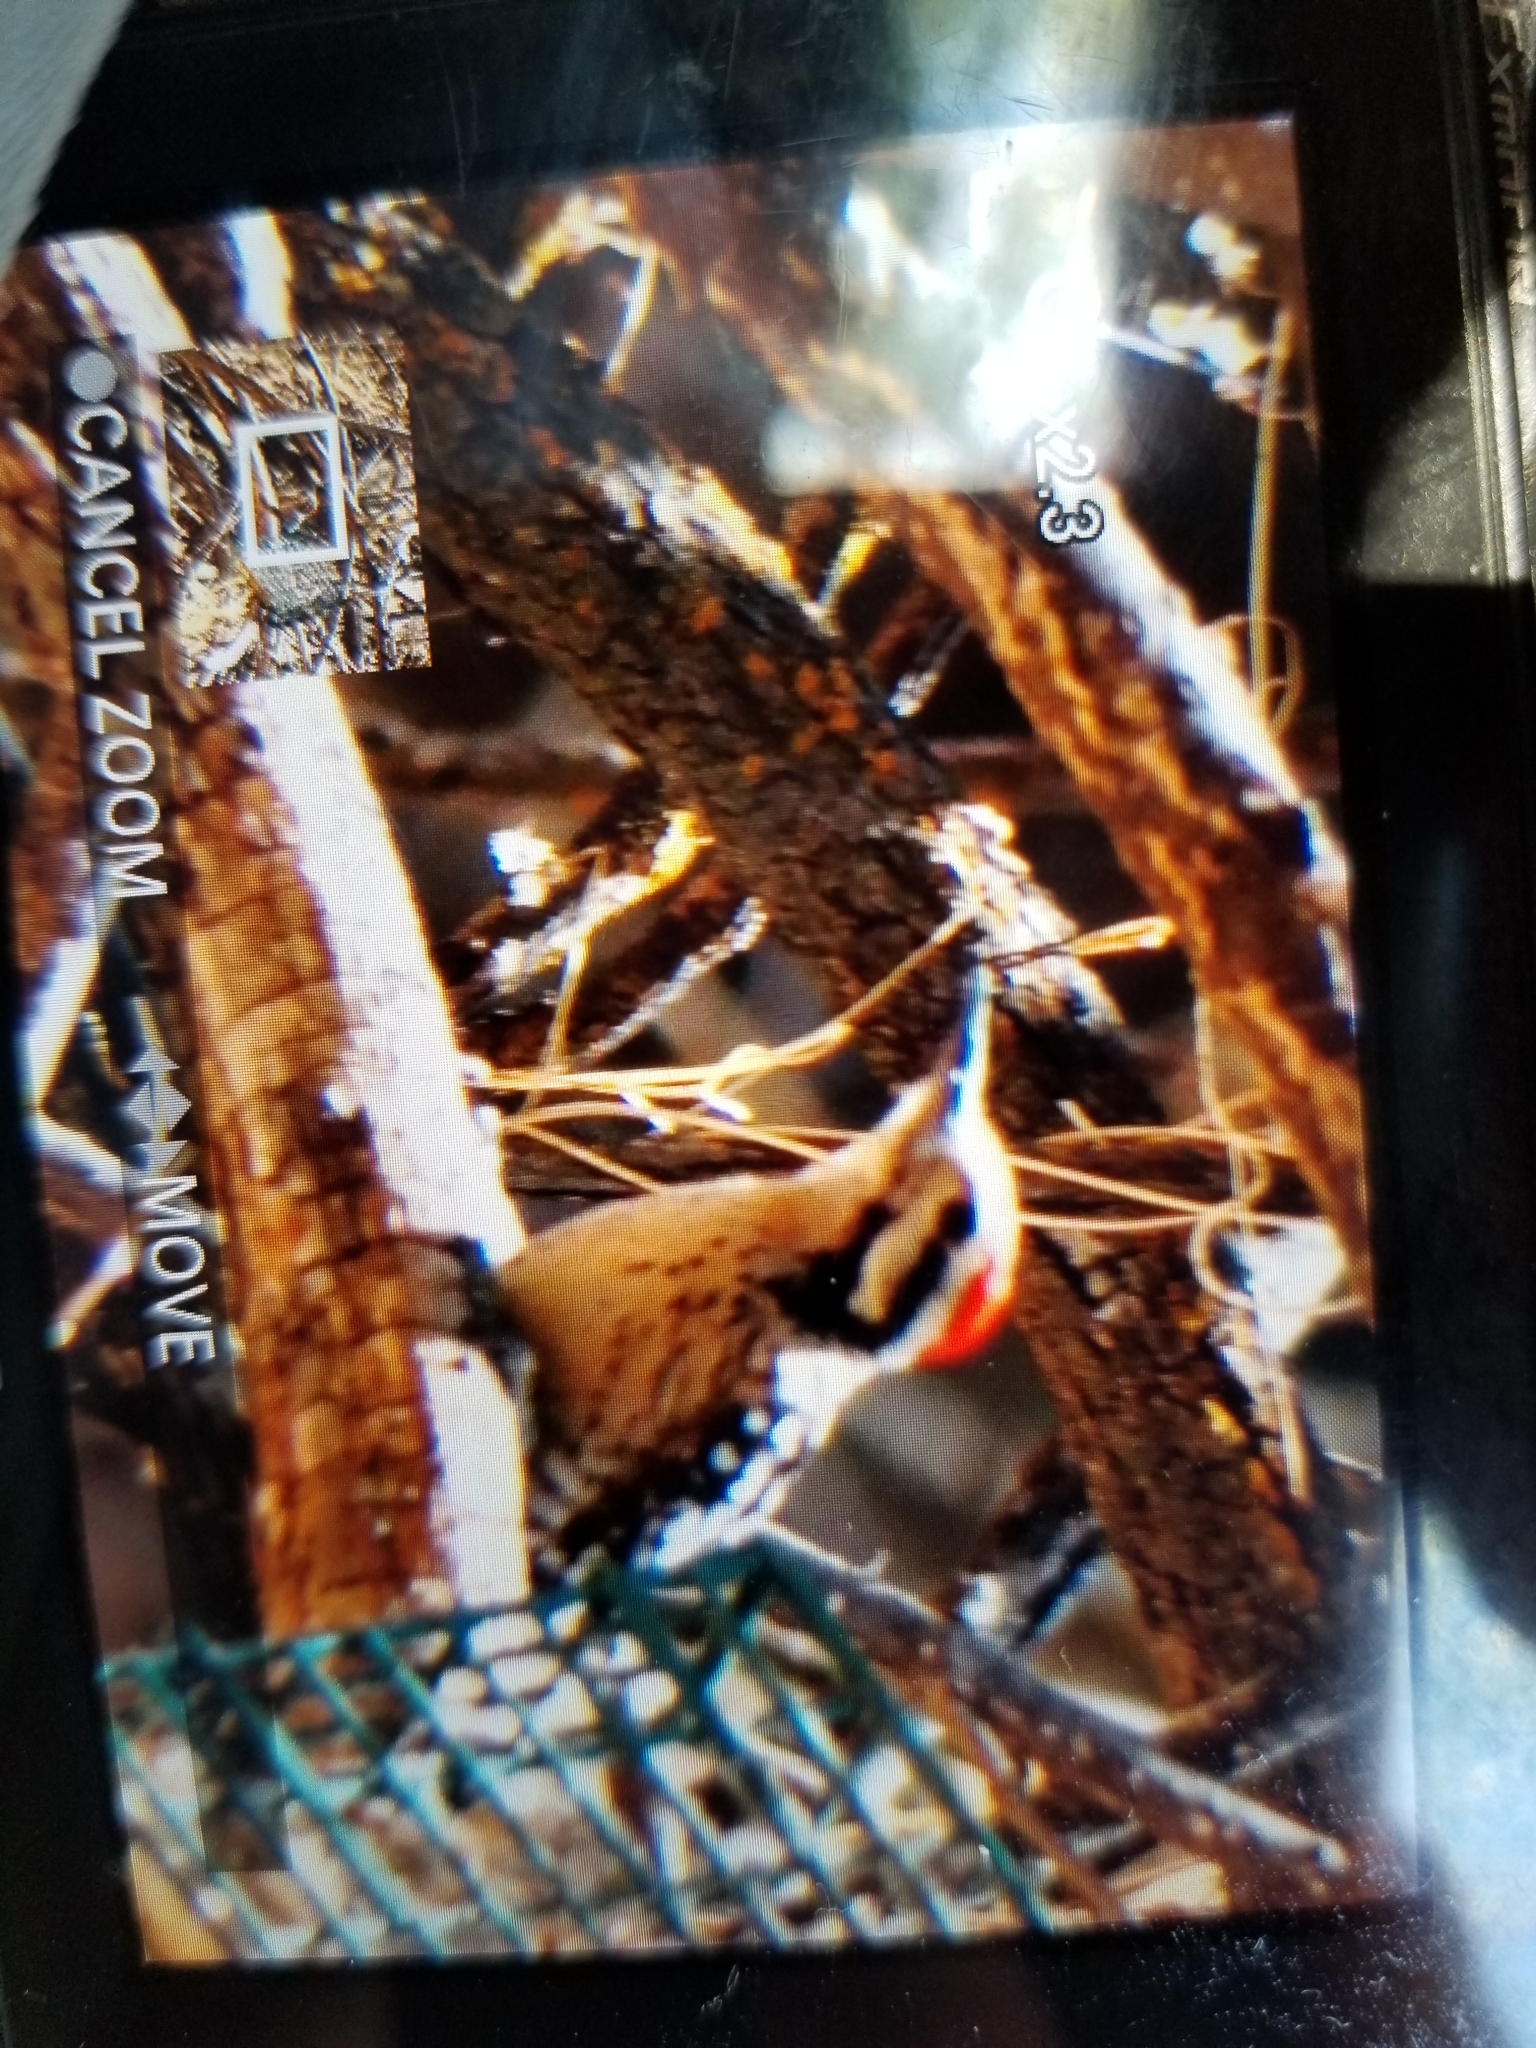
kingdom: Animalia
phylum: Chordata
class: Aves
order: Piciformes
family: Picidae
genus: Dryobates
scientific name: Dryobates scalaris
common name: Ladder-backed woodpecker
